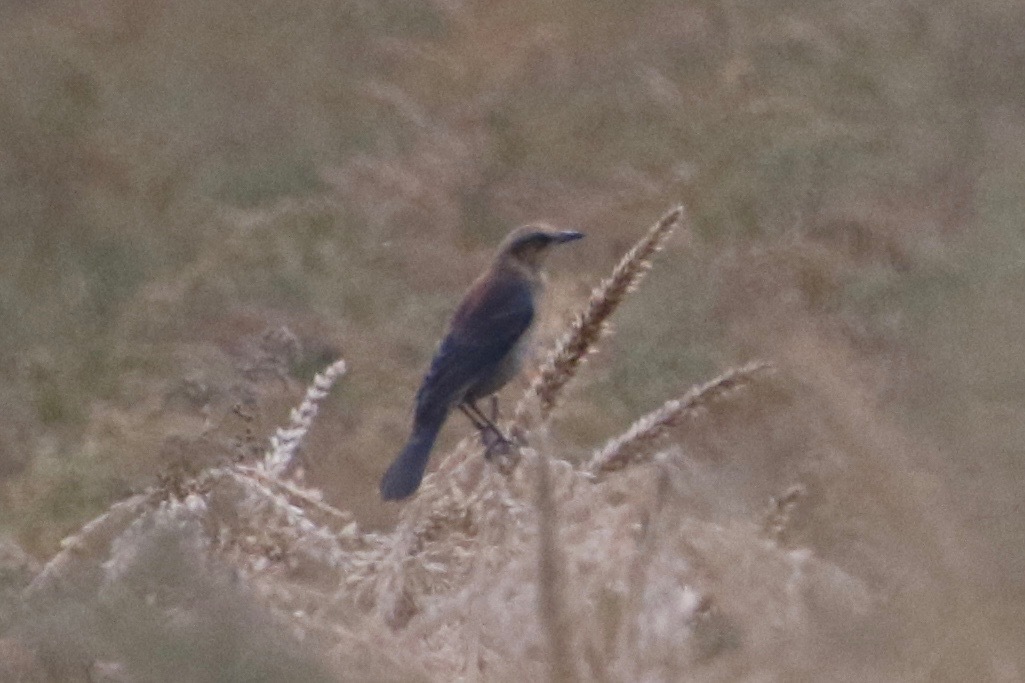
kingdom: Animalia
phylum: Chordata
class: Aves
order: Passeriformes
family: Icteridae
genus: Euphagus
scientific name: Euphagus carolinus
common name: Rusty blackbird
